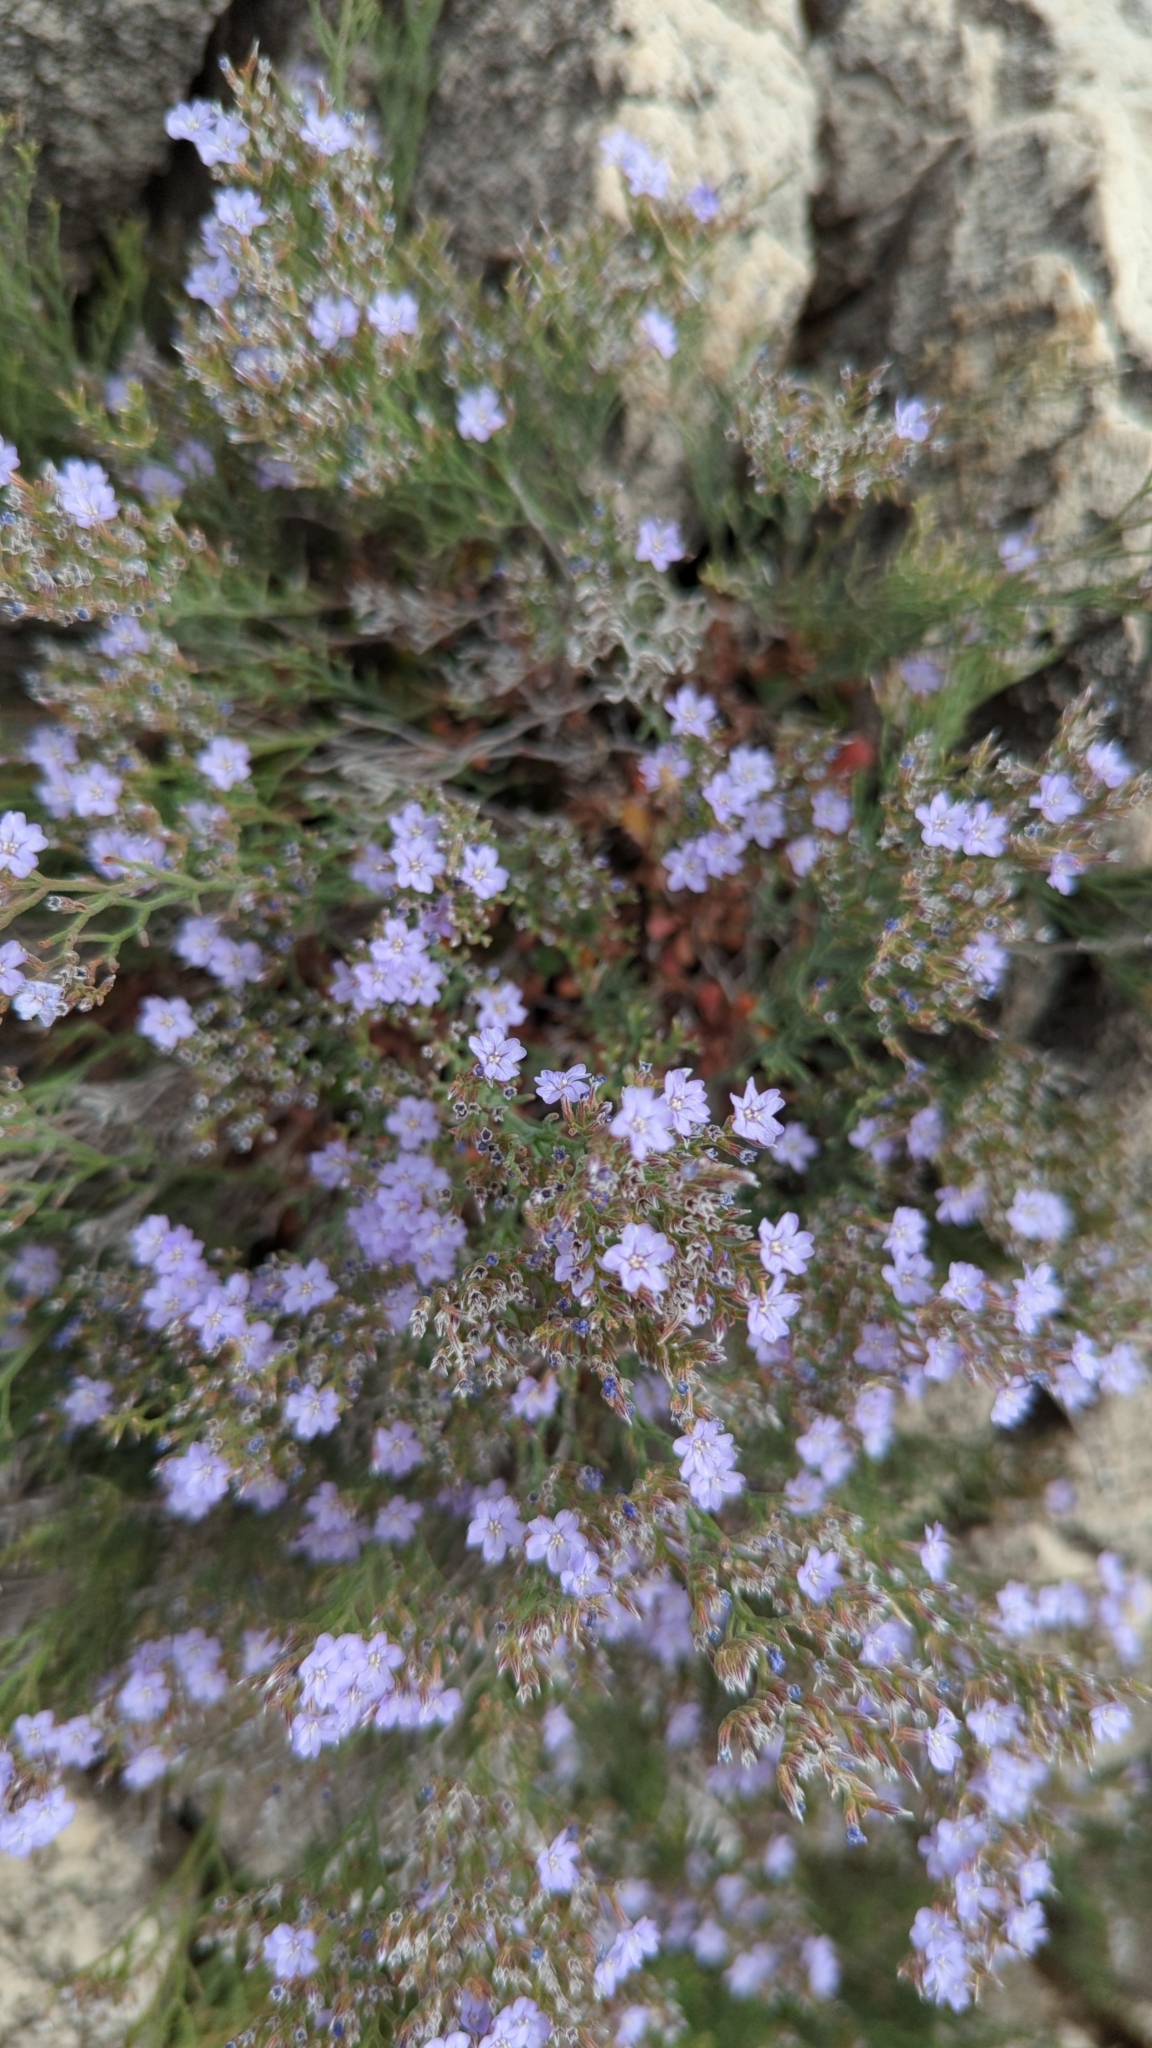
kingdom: Plantae
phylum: Tracheophyta
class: Magnoliopsida
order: Caryophyllales
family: Plumbaginaceae
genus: Limonium
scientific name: Limonium cordatum
